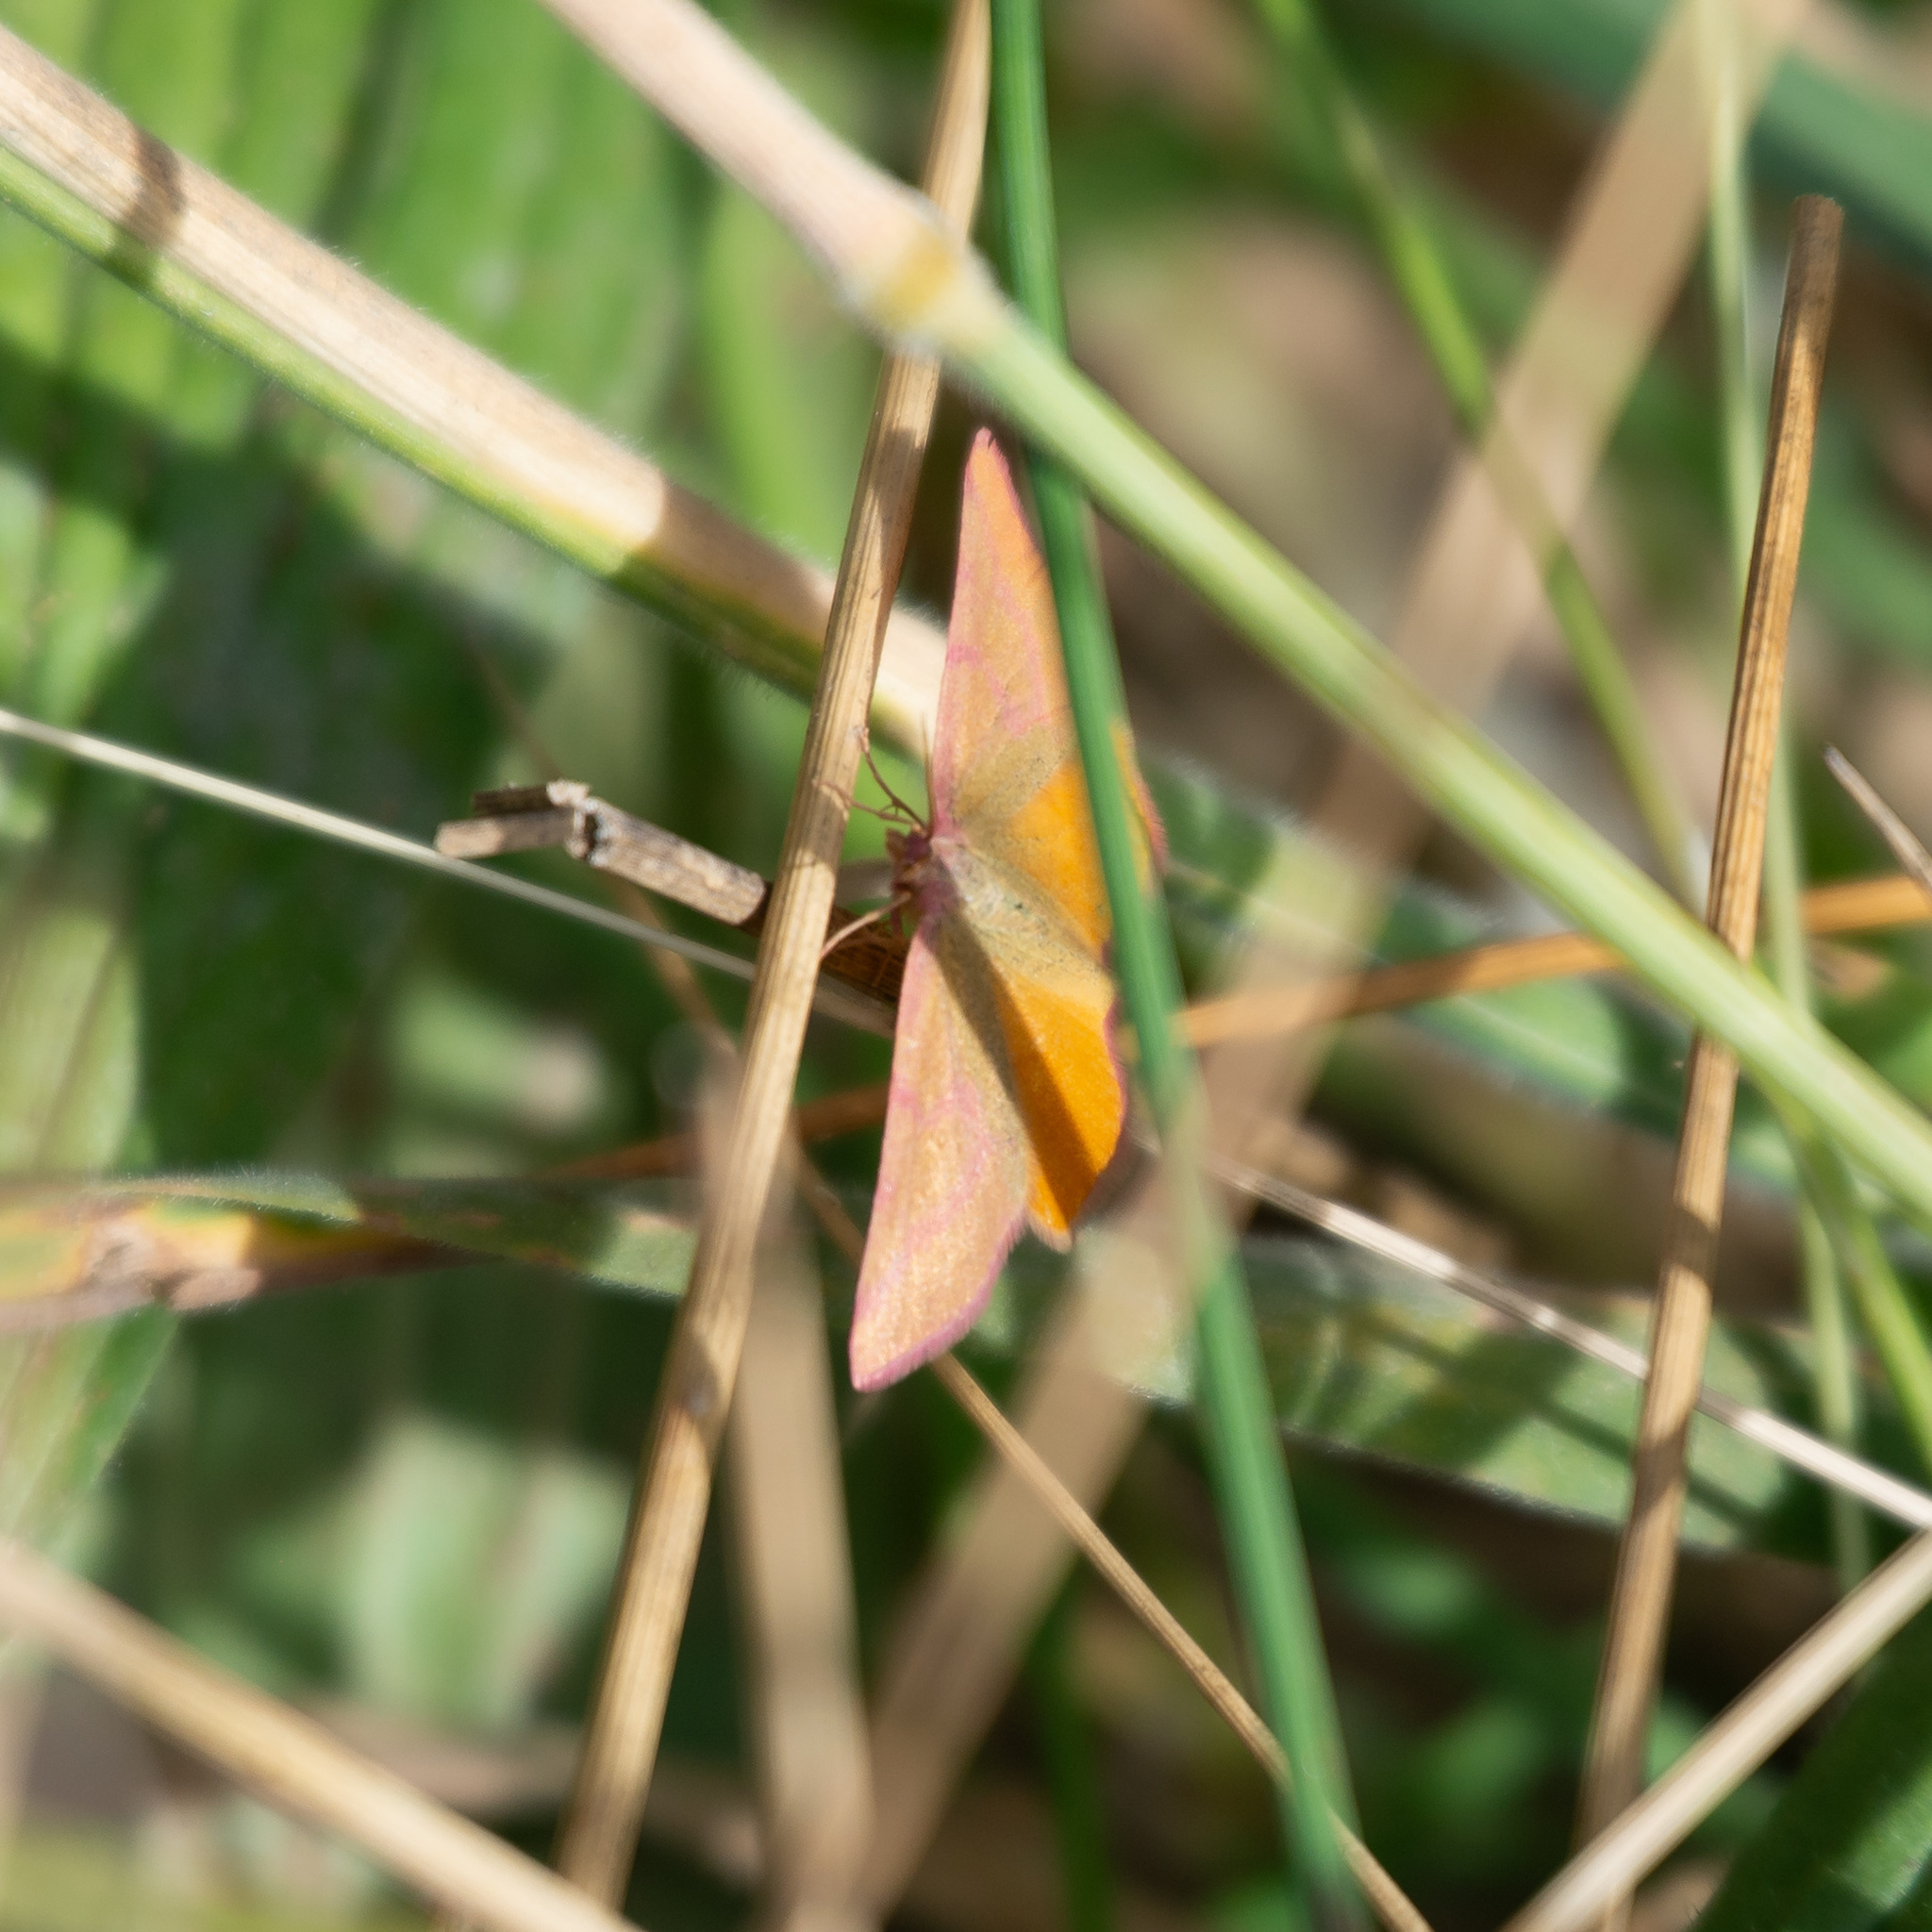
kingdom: Animalia
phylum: Arthropoda
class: Insecta
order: Lepidoptera
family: Geometridae
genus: Lythria
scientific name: Lythria purpuraria
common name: Purple-barred yellow
